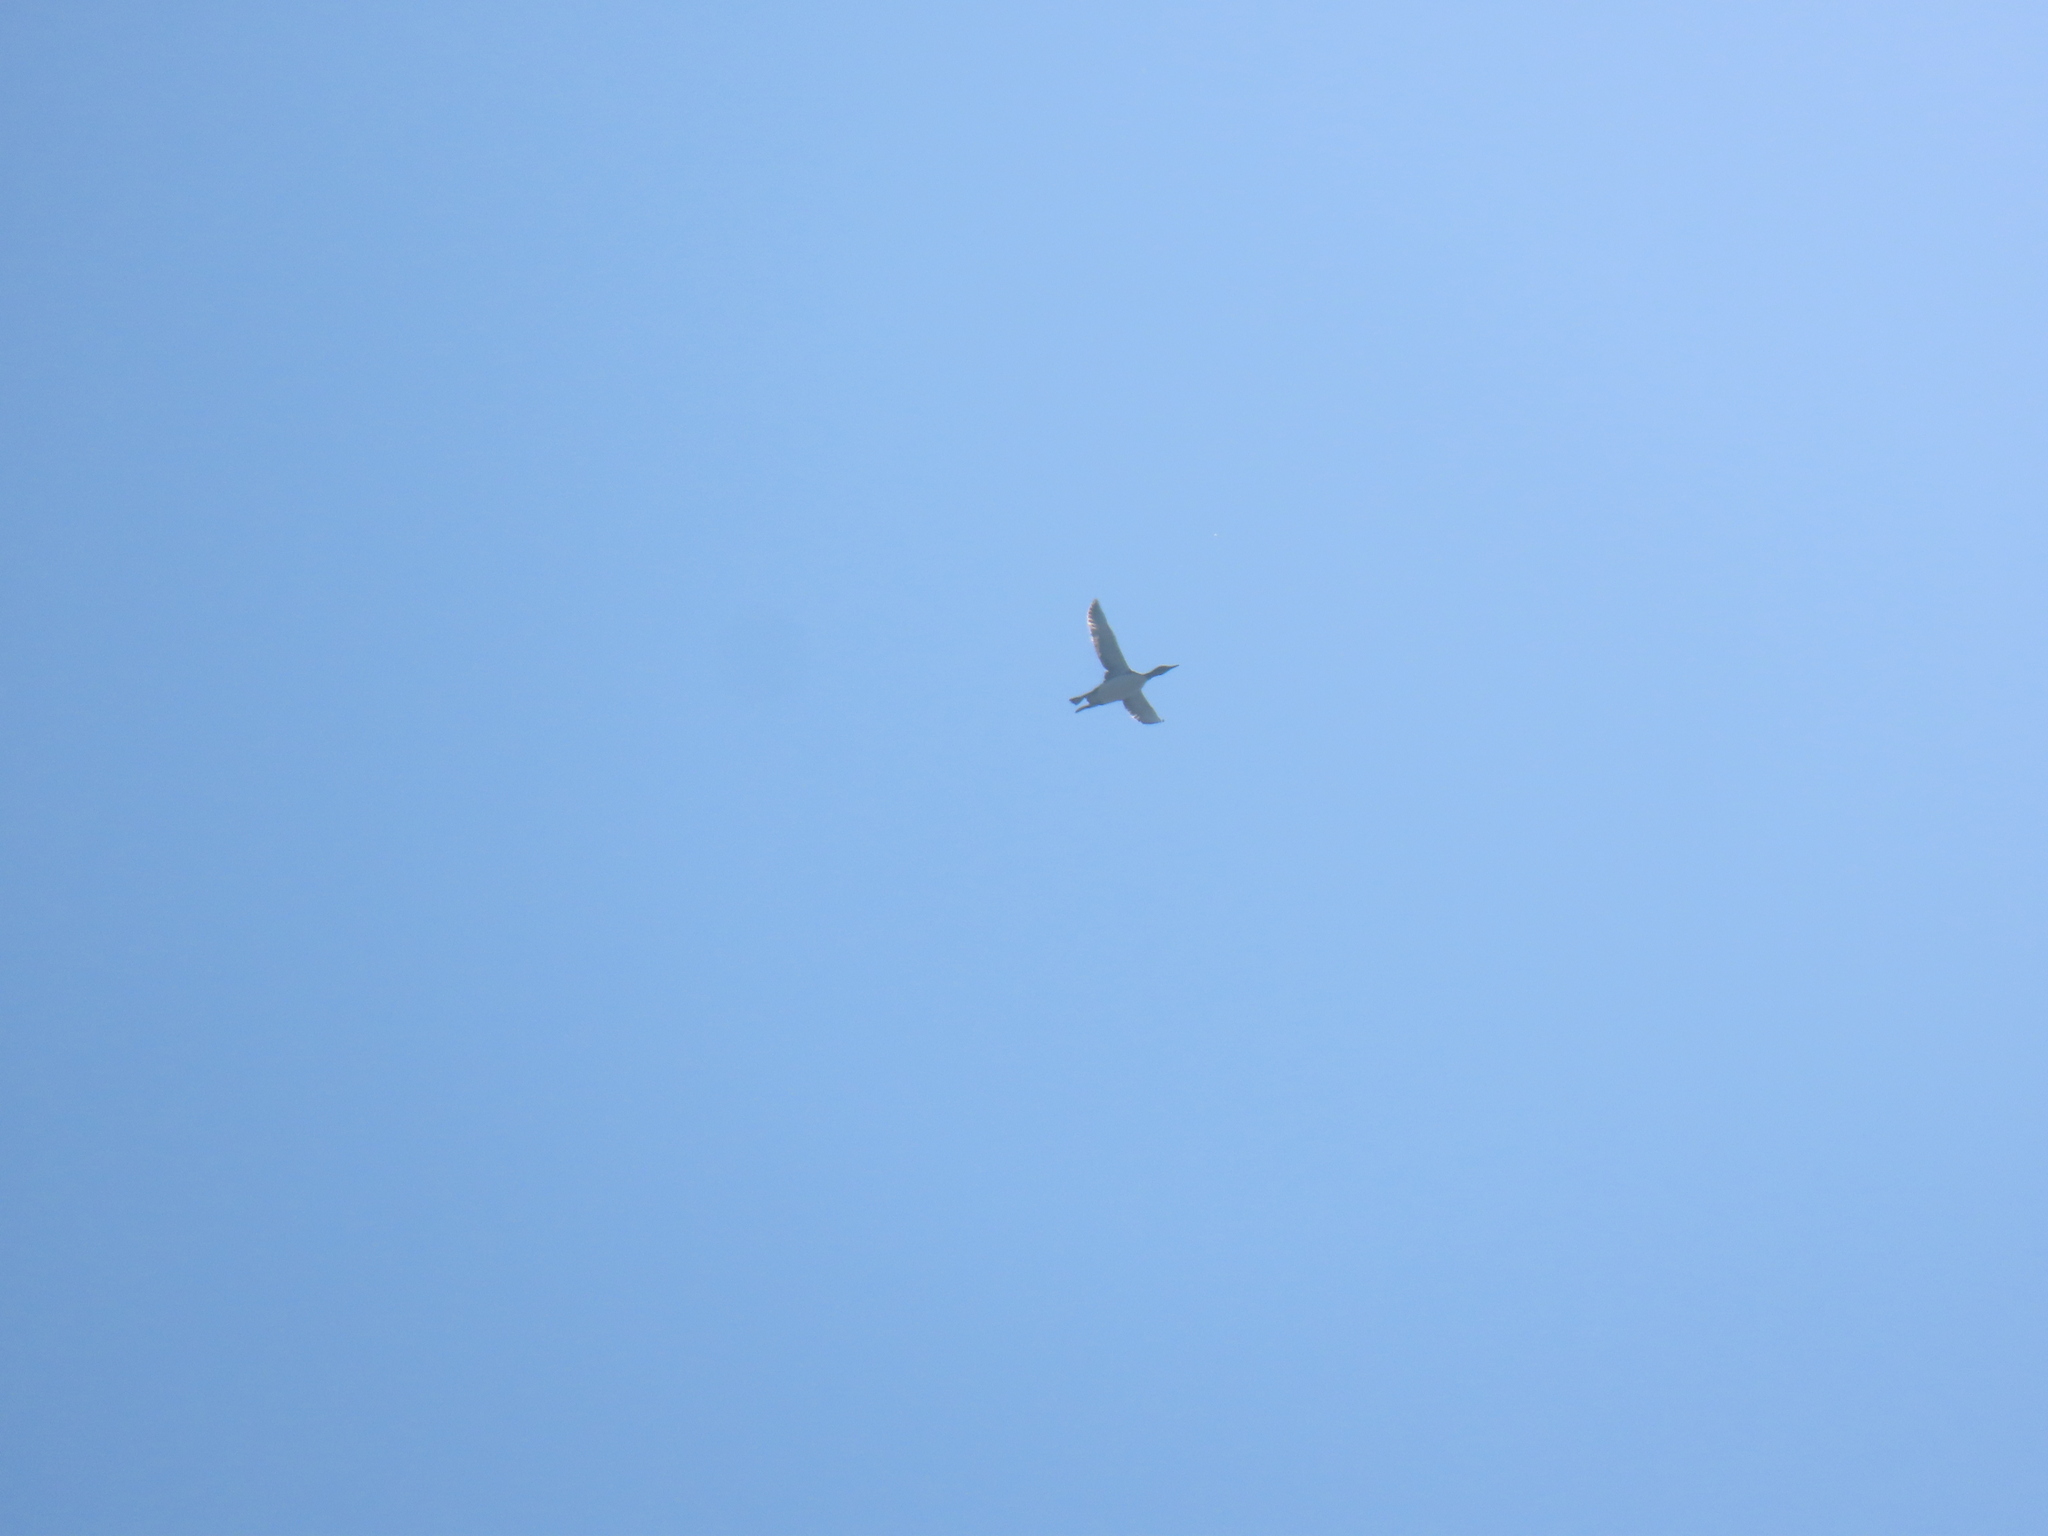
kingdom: Animalia
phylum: Chordata
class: Aves
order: Gaviiformes
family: Gaviidae
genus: Gavia
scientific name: Gavia immer
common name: Common loon
